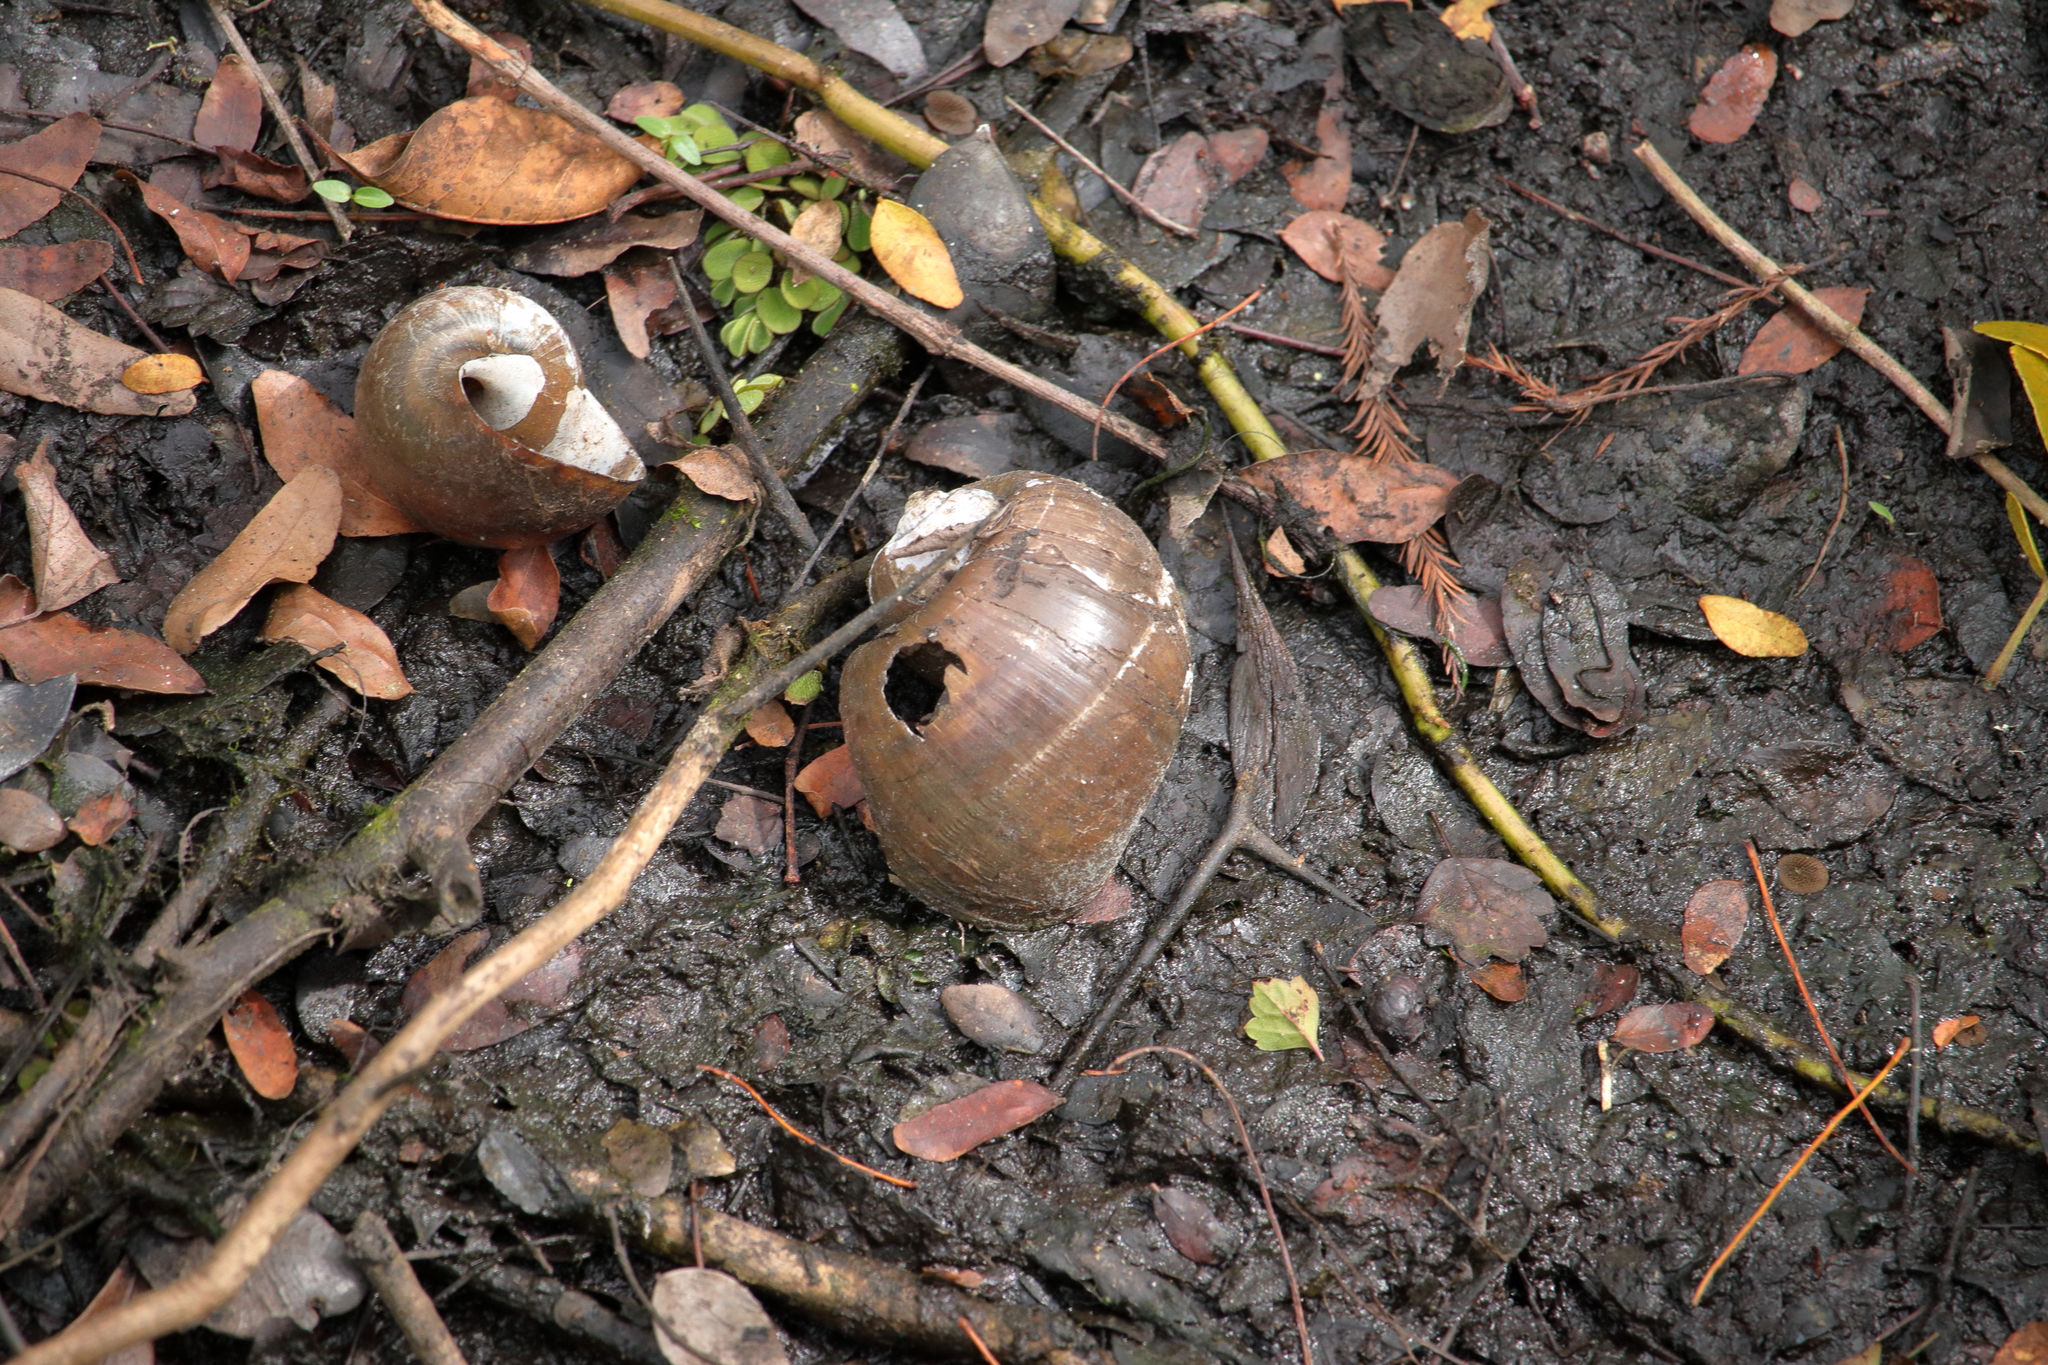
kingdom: Animalia
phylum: Chordata
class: Aves
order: Gruiformes
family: Aramidae
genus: Aramus
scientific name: Aramus guarauna
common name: Limpkin
